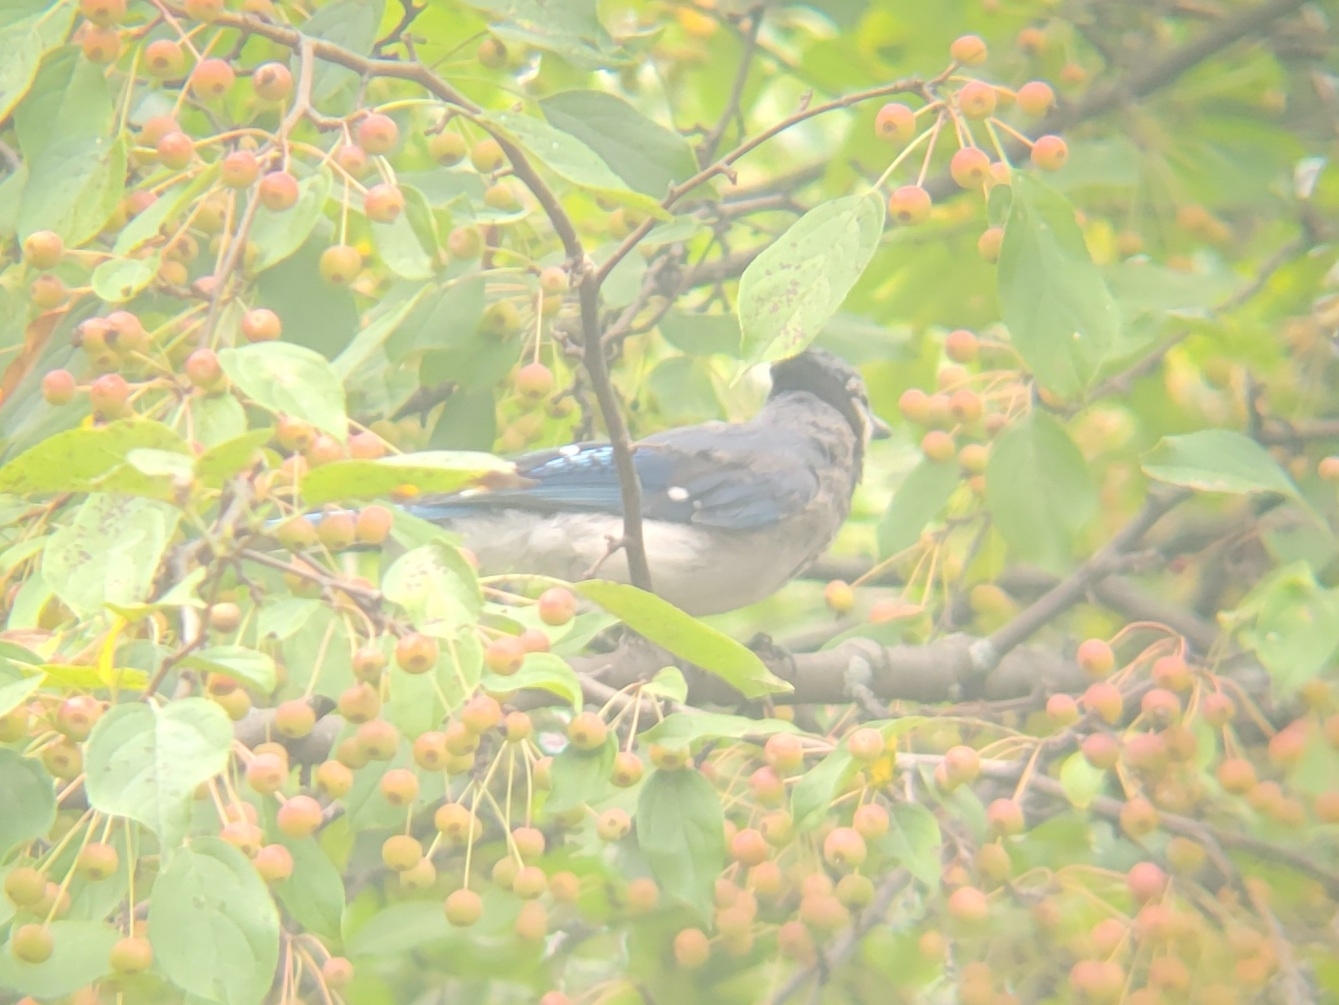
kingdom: Animalia
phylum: Chordata
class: Aves
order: Passeriformes
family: Corvidae
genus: Cyanocitta
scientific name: Cyanocitta cristata
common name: Blue jay
